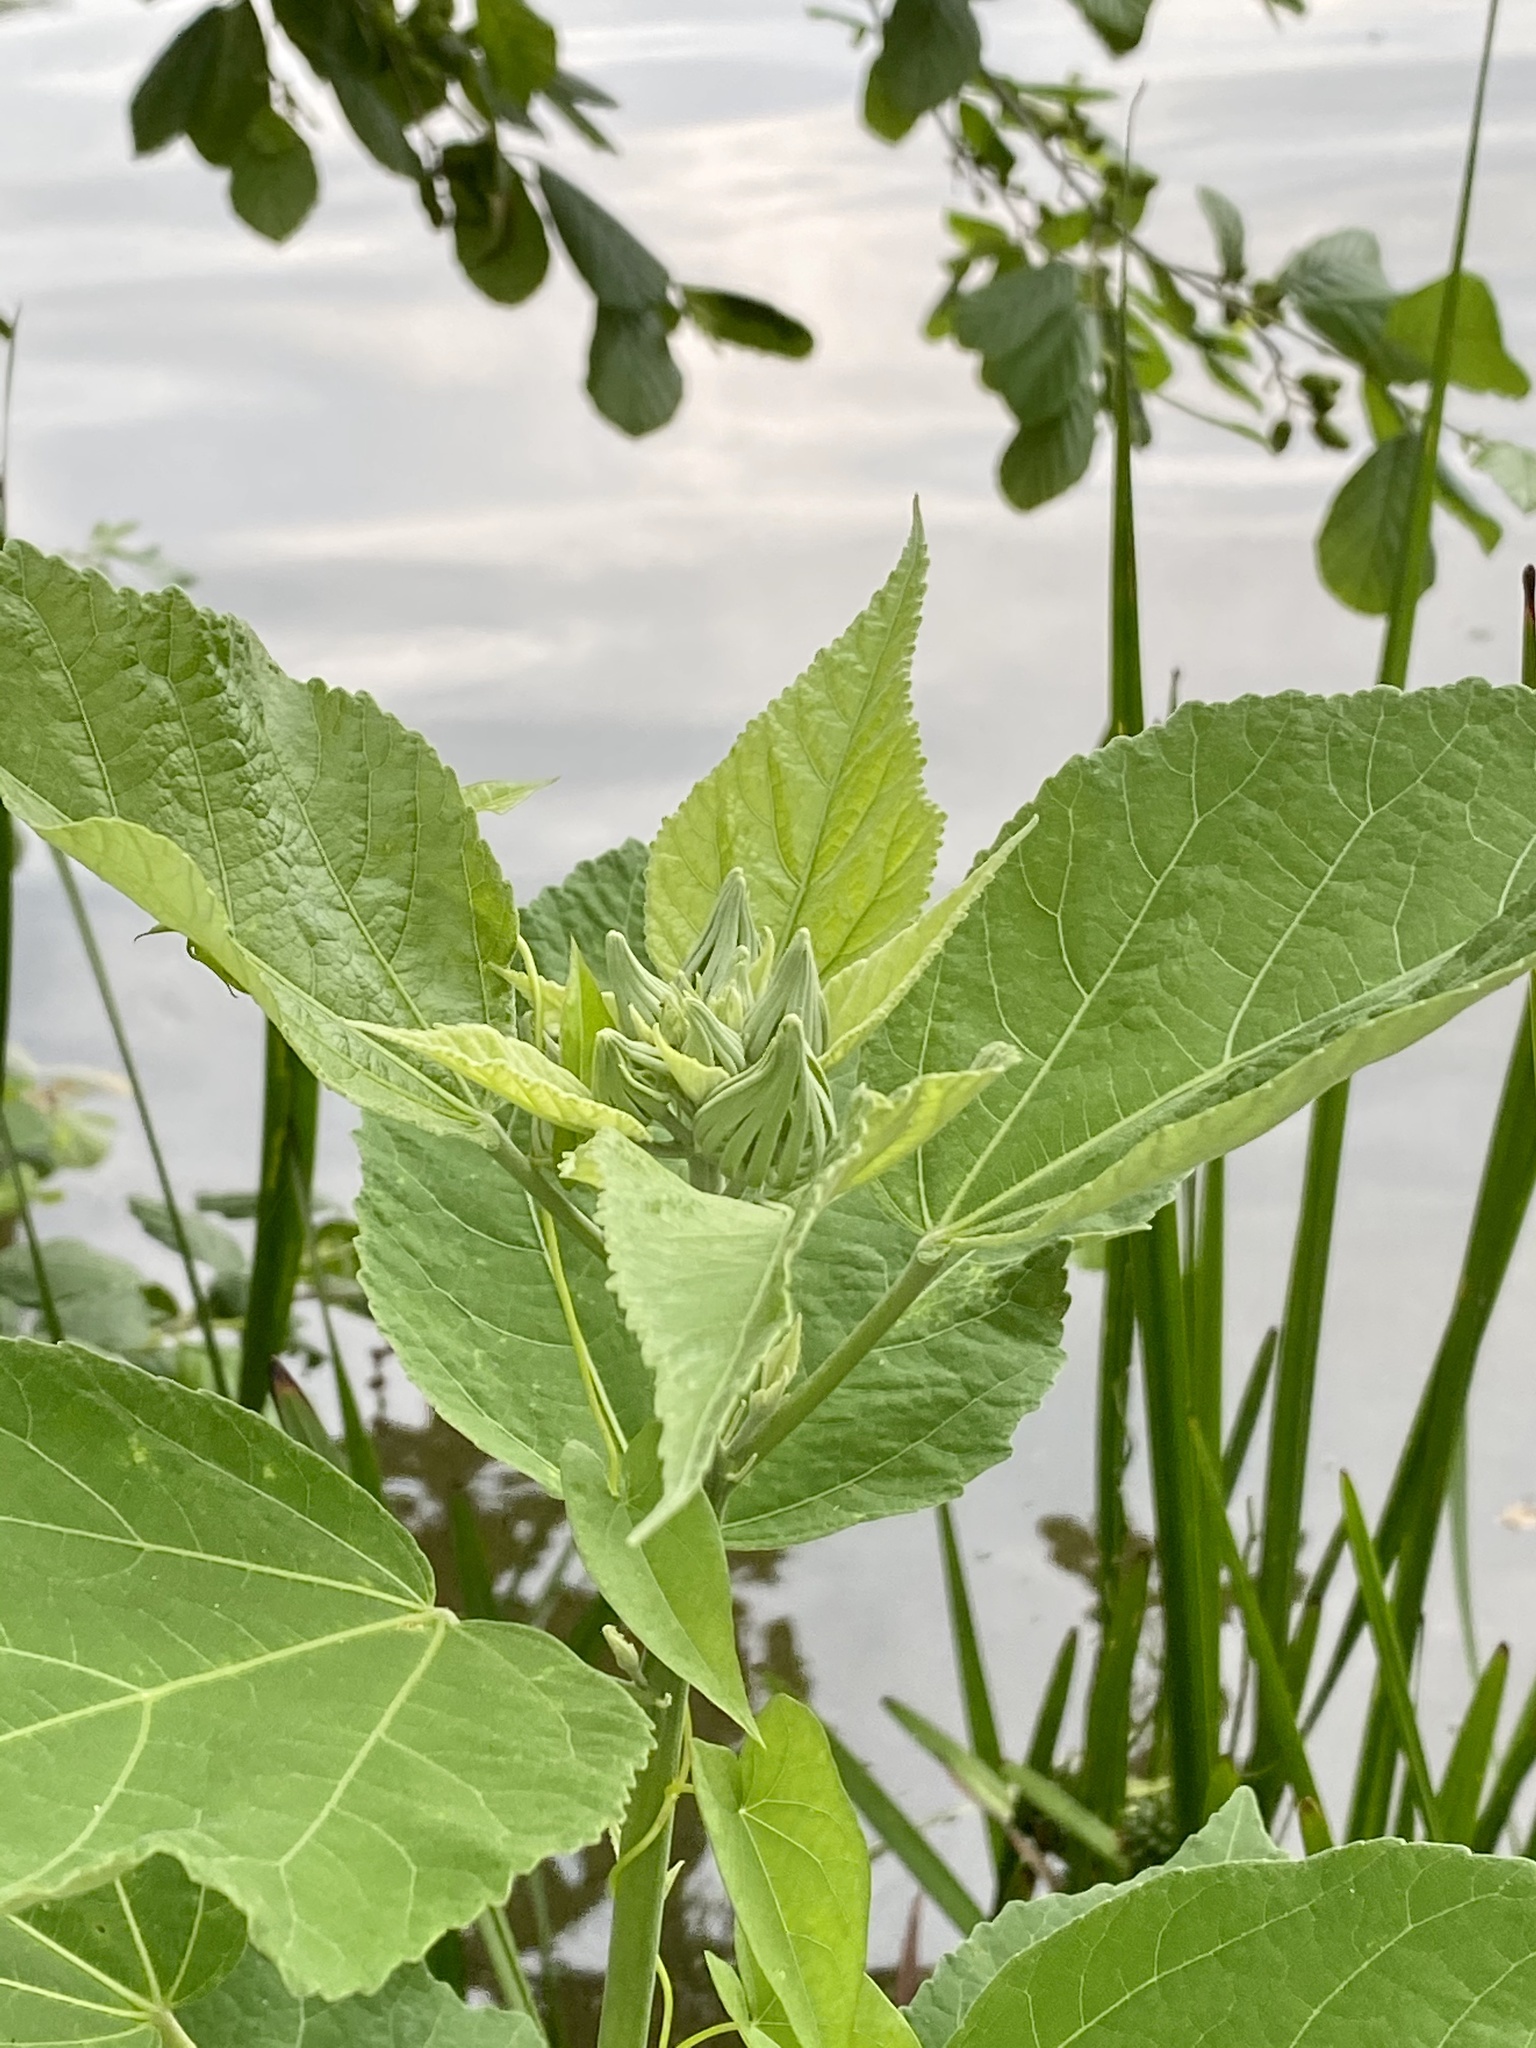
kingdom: Plantae
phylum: Tracheophyta
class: Magnoliopsida
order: Malvales
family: Malvaceae
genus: Hibiscus
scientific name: Hibiscus moscheutos
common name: Common rose-mallow
